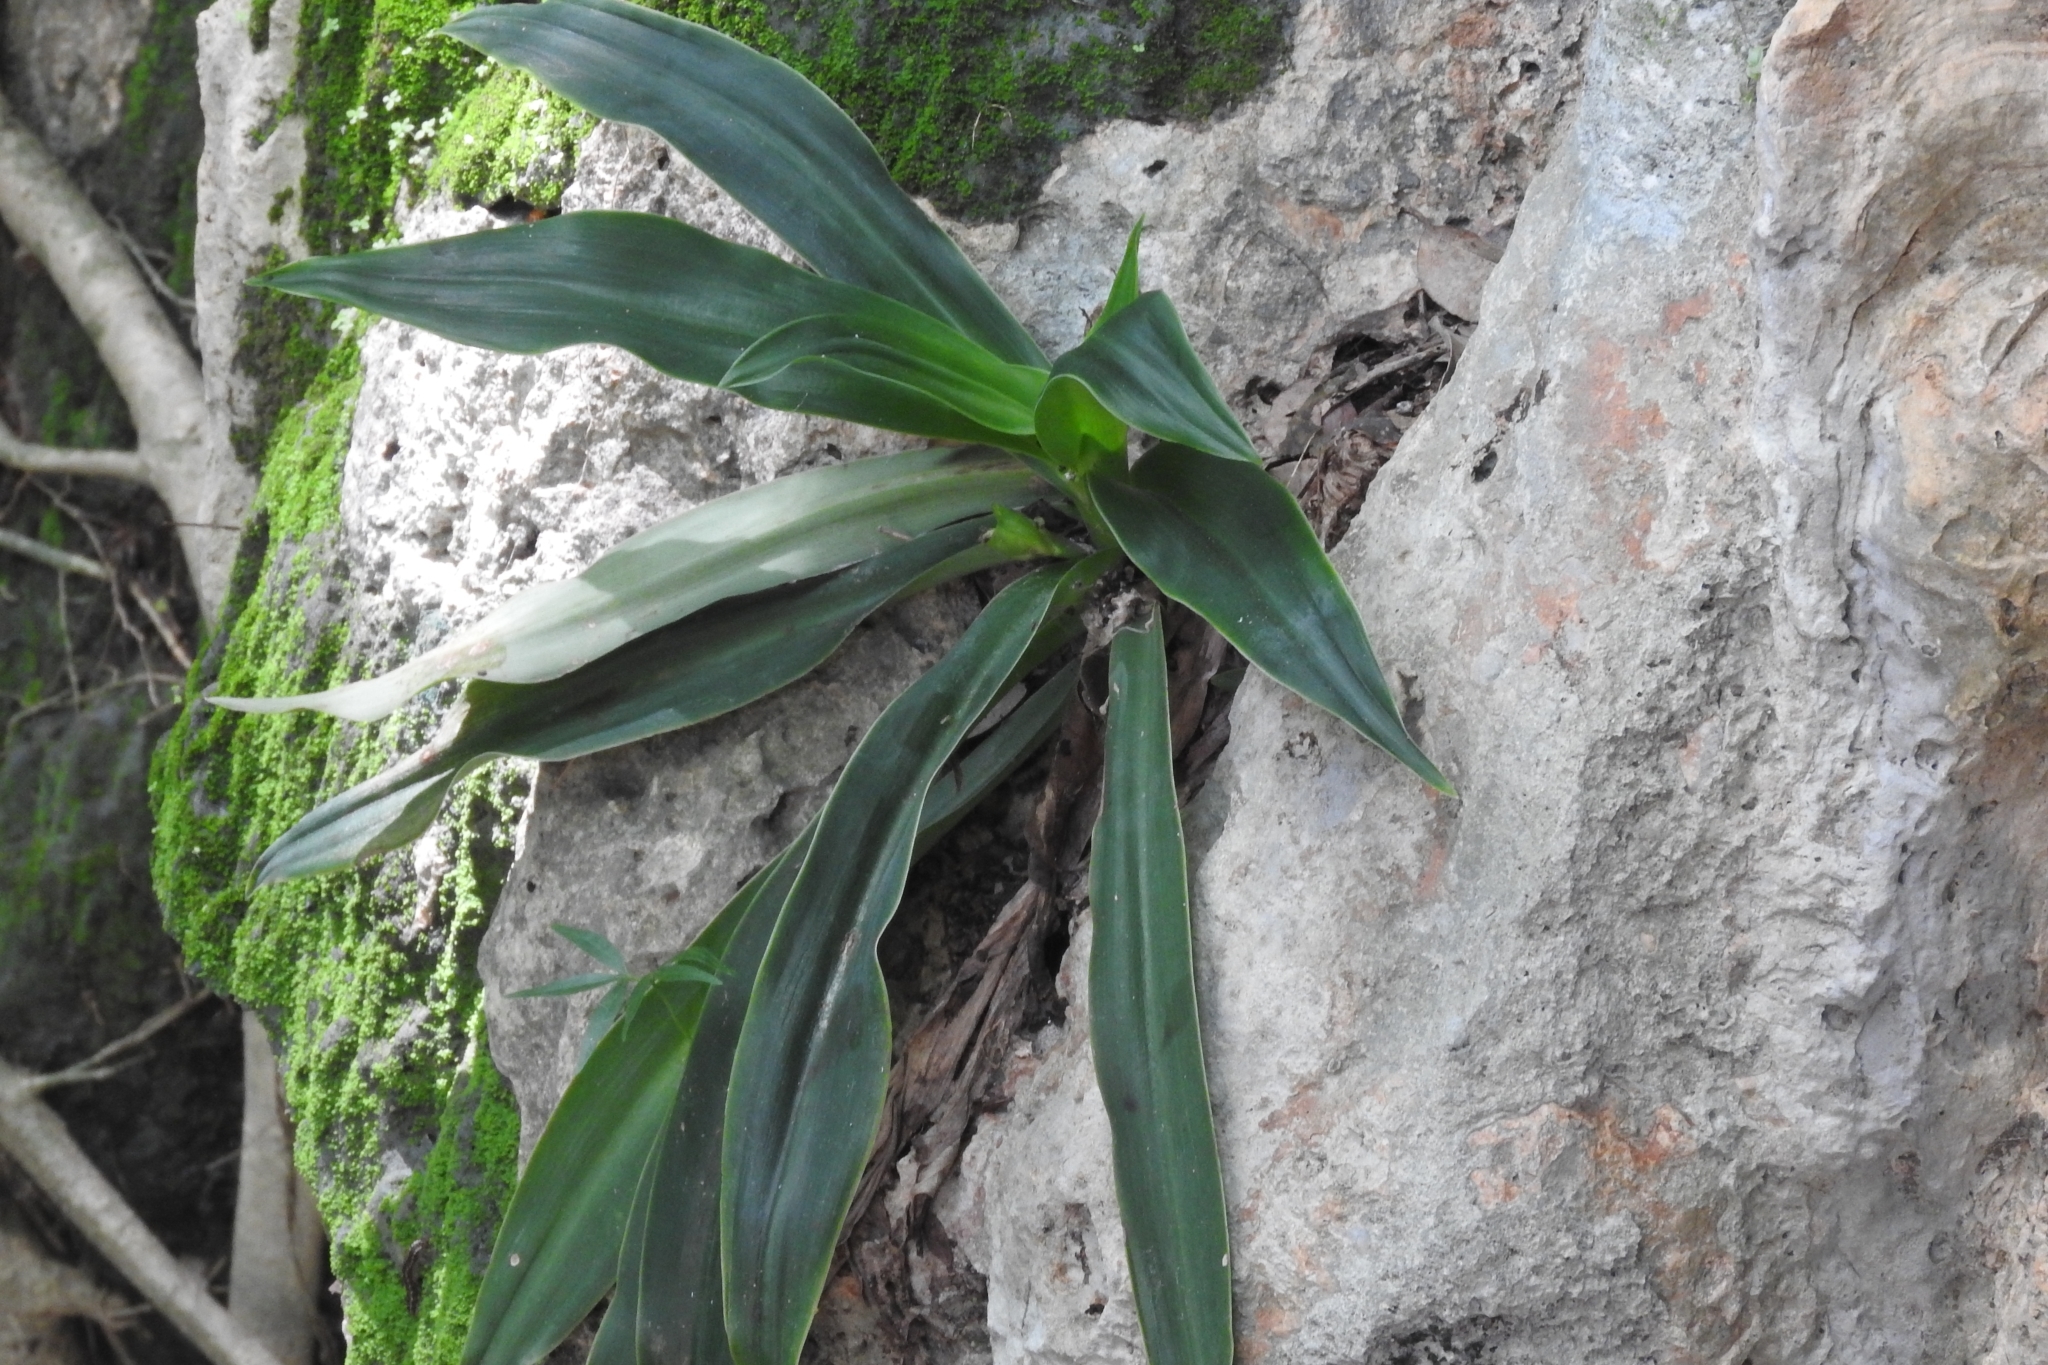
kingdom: Plantae
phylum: Tracheophyta
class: Liliopsida
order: Commelinales
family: Commelinaceae
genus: Callisia
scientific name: Callisia fragrans
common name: Basketplant
